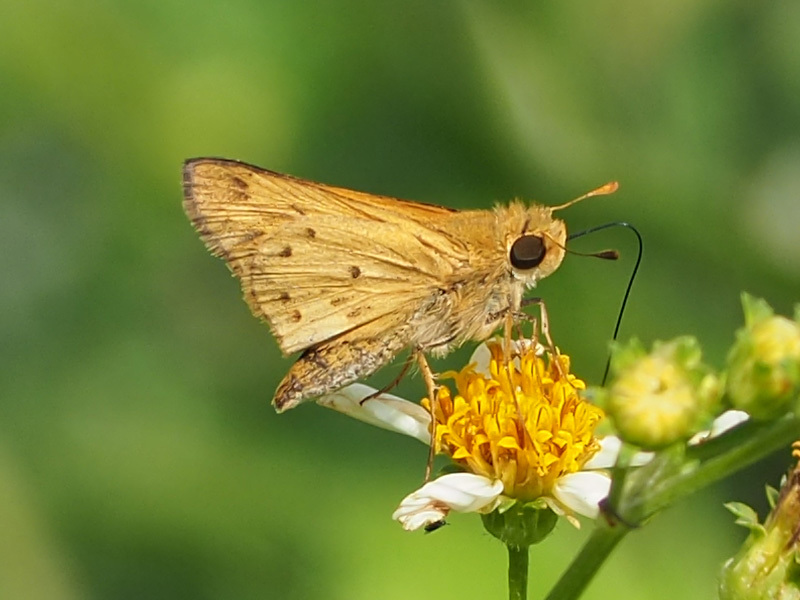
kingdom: Animalia
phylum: Arthropoda
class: Insecta
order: Lepidoptera
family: Hesperiidae
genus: Hylephila
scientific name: Hylephila phyleus
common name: Fiery skipper
